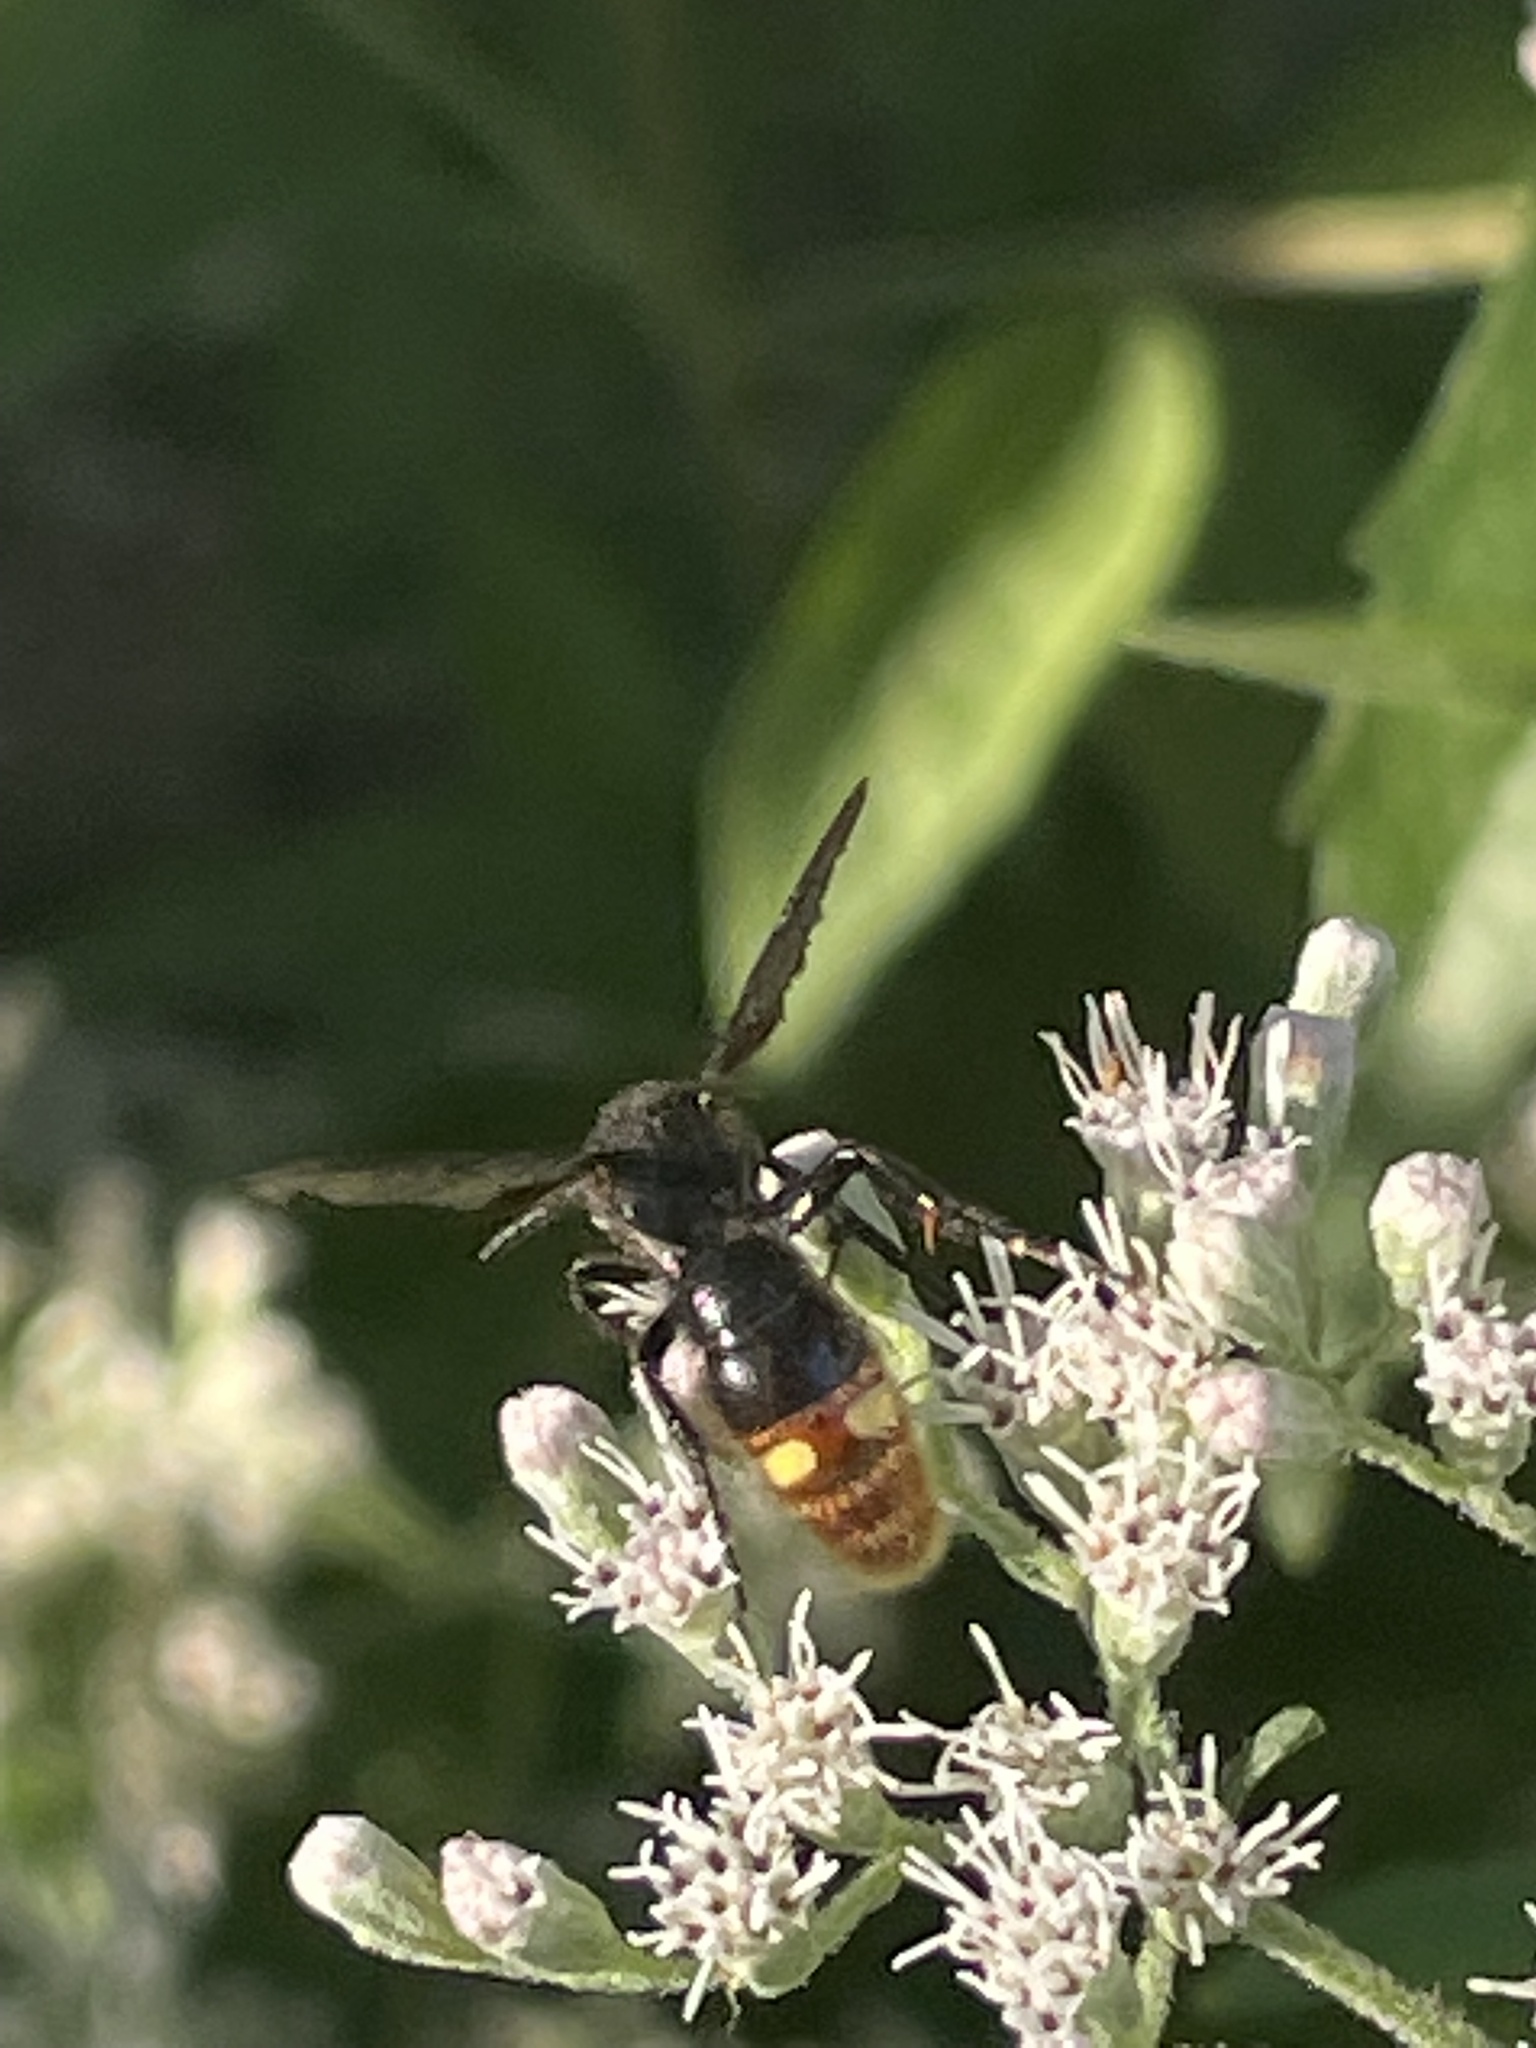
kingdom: Animalia
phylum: Arthropoda
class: Insecta
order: Hymenoptera
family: Scoliidae
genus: Scolia
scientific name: Scolia dubia
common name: Blue-winged scoliid wasp
